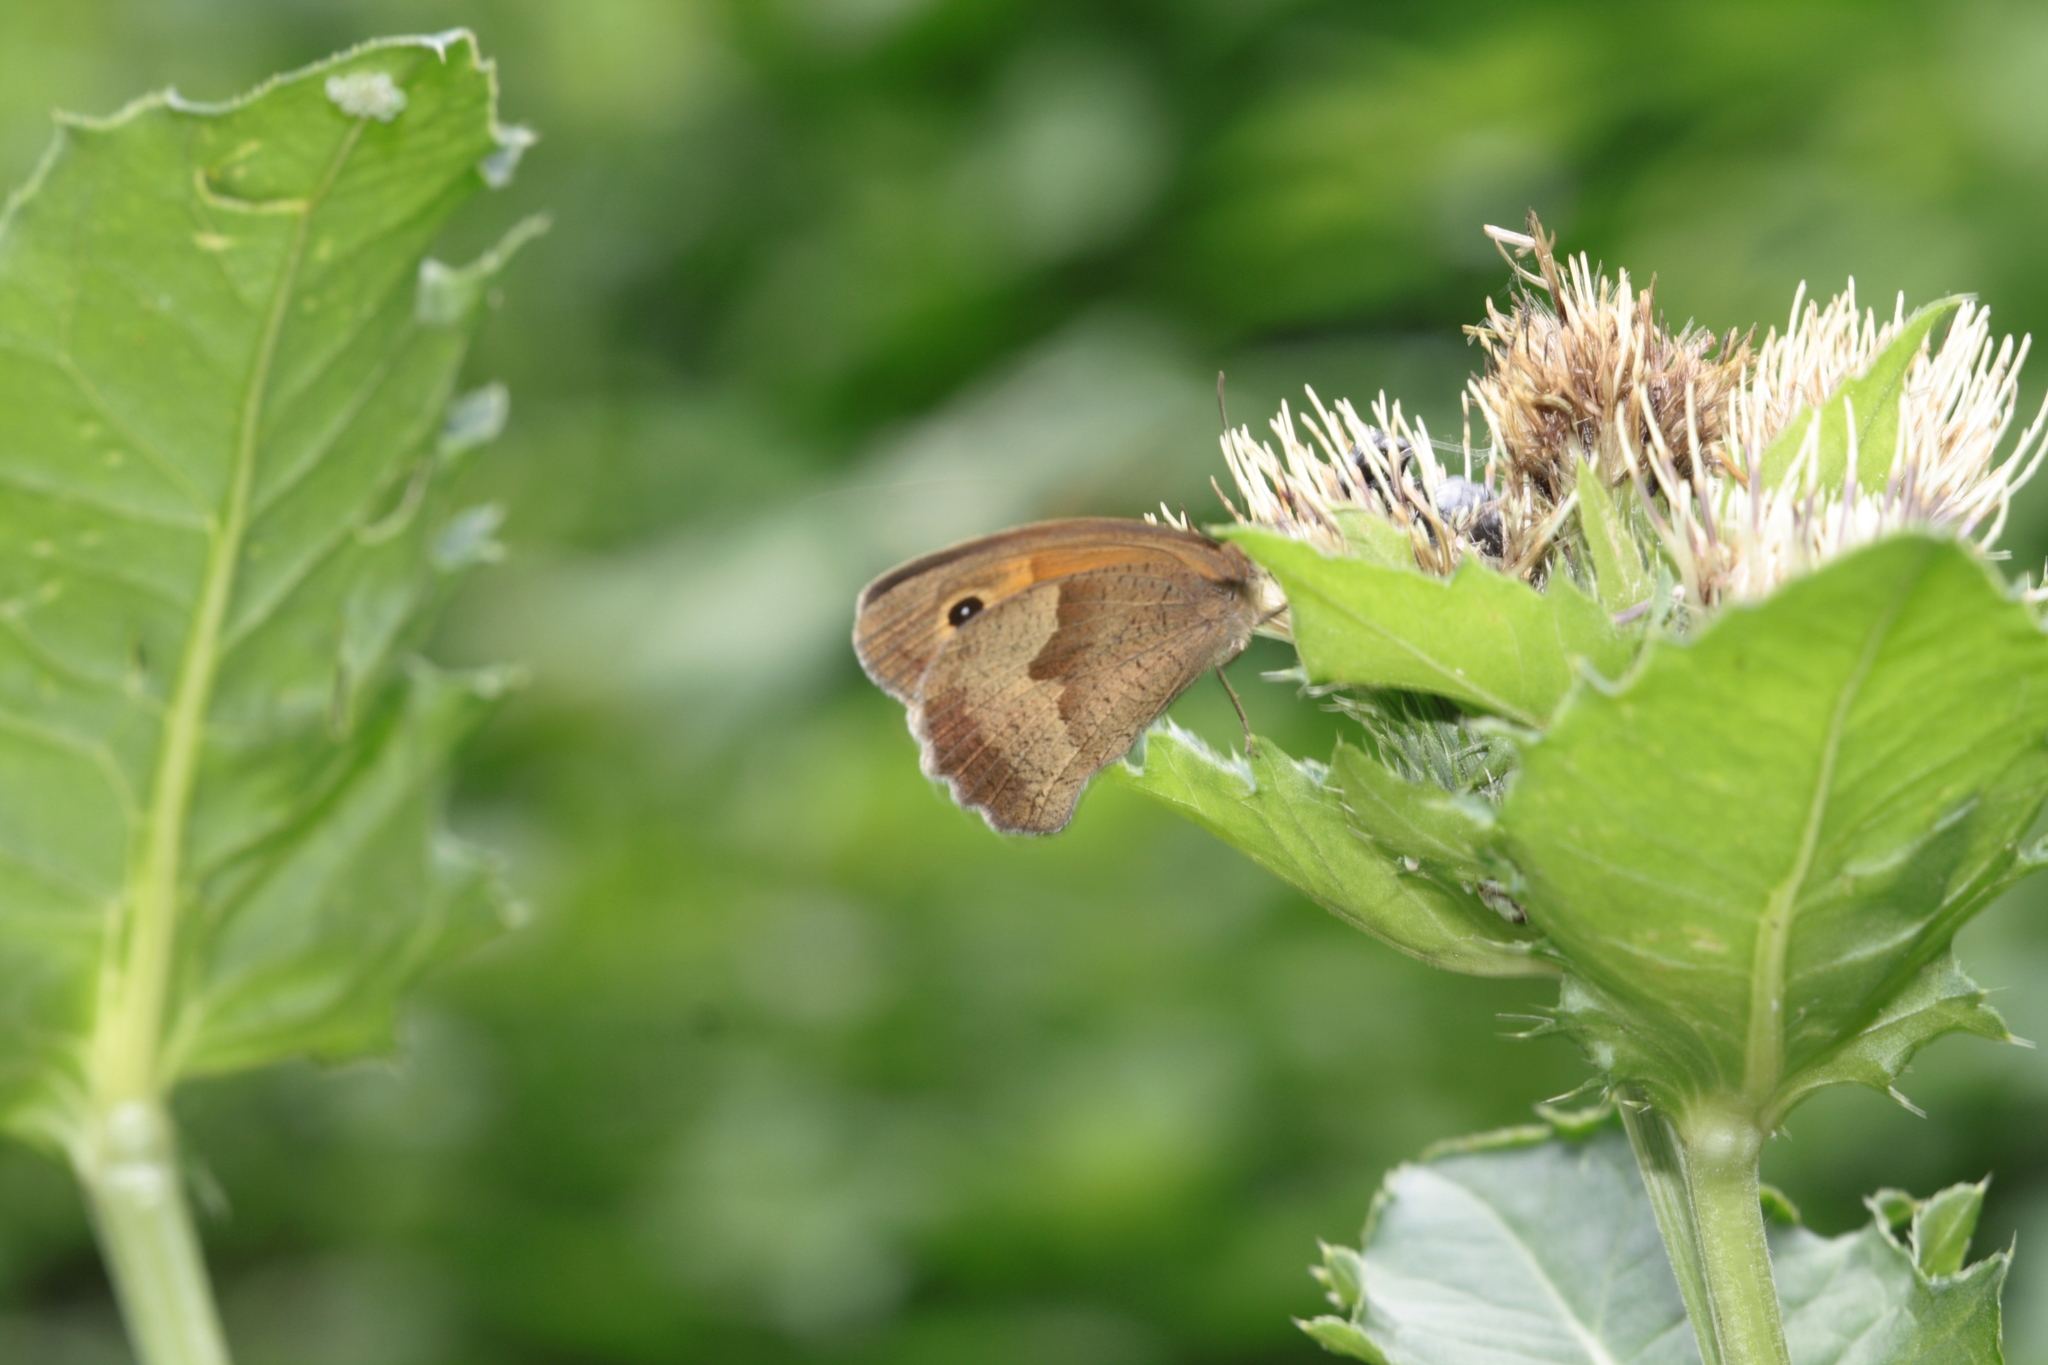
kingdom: Animalia
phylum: Arthropoda
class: Insecta
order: Lepidoptera
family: Nymphalidae
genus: Maniola
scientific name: Maniola jurtina
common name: Meadow brown
